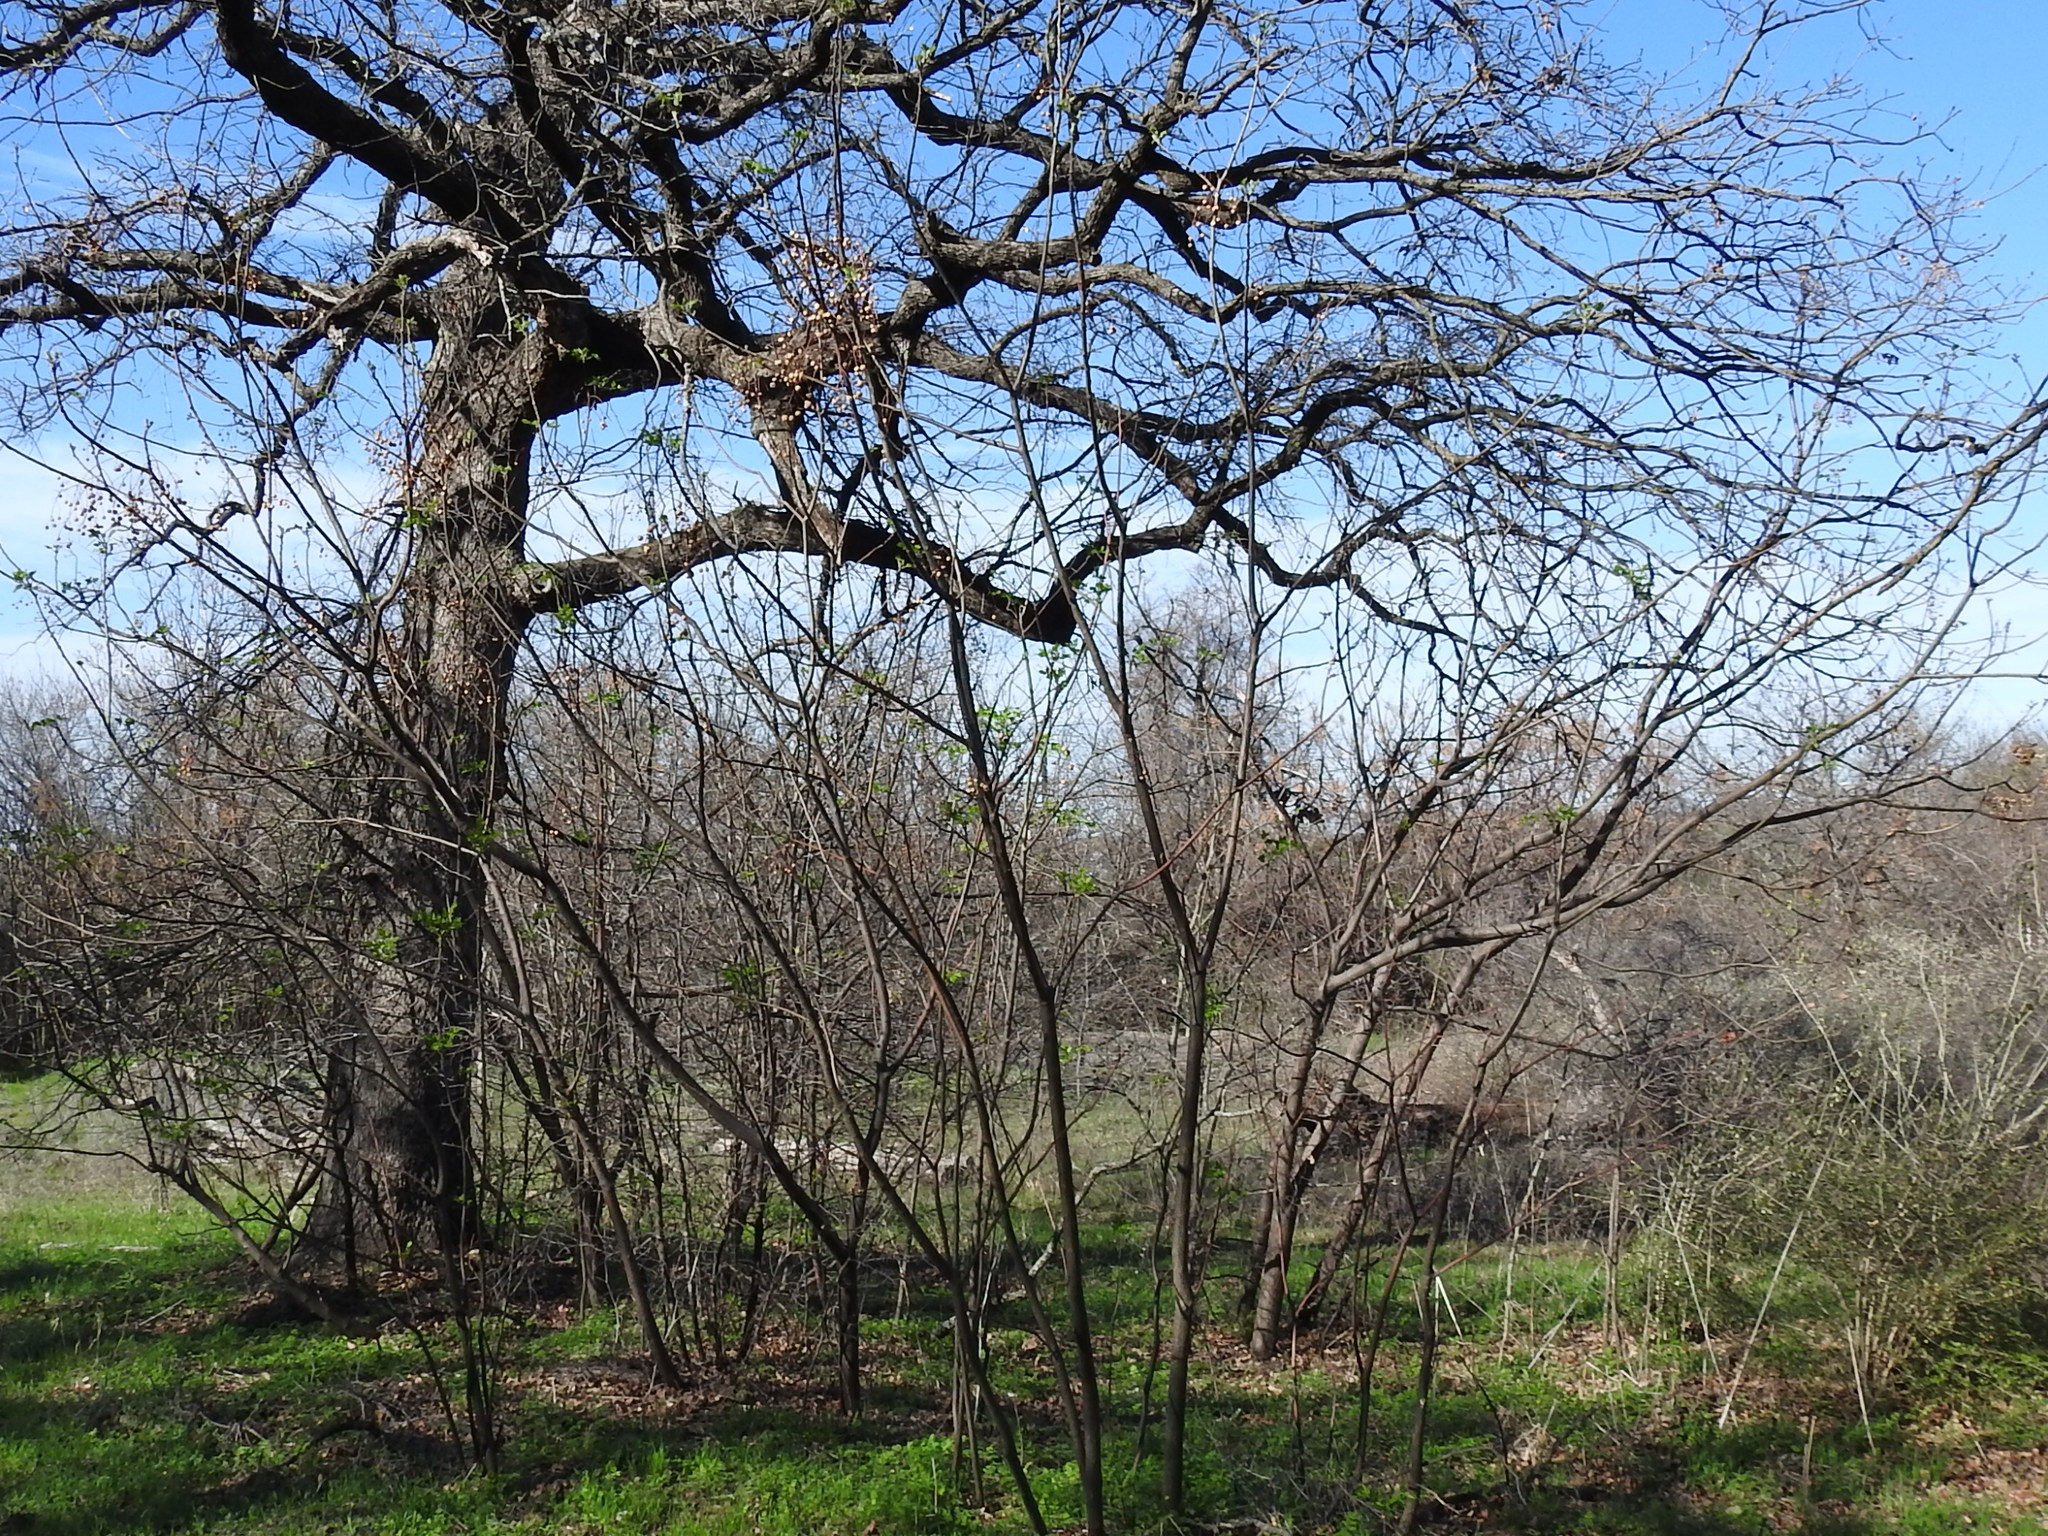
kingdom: Plantae
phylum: Tracheophyta
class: Magnoliopsida
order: Sapindales
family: Meliaceae
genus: Melia
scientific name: Melia azedarach
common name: Chinaberrytree
